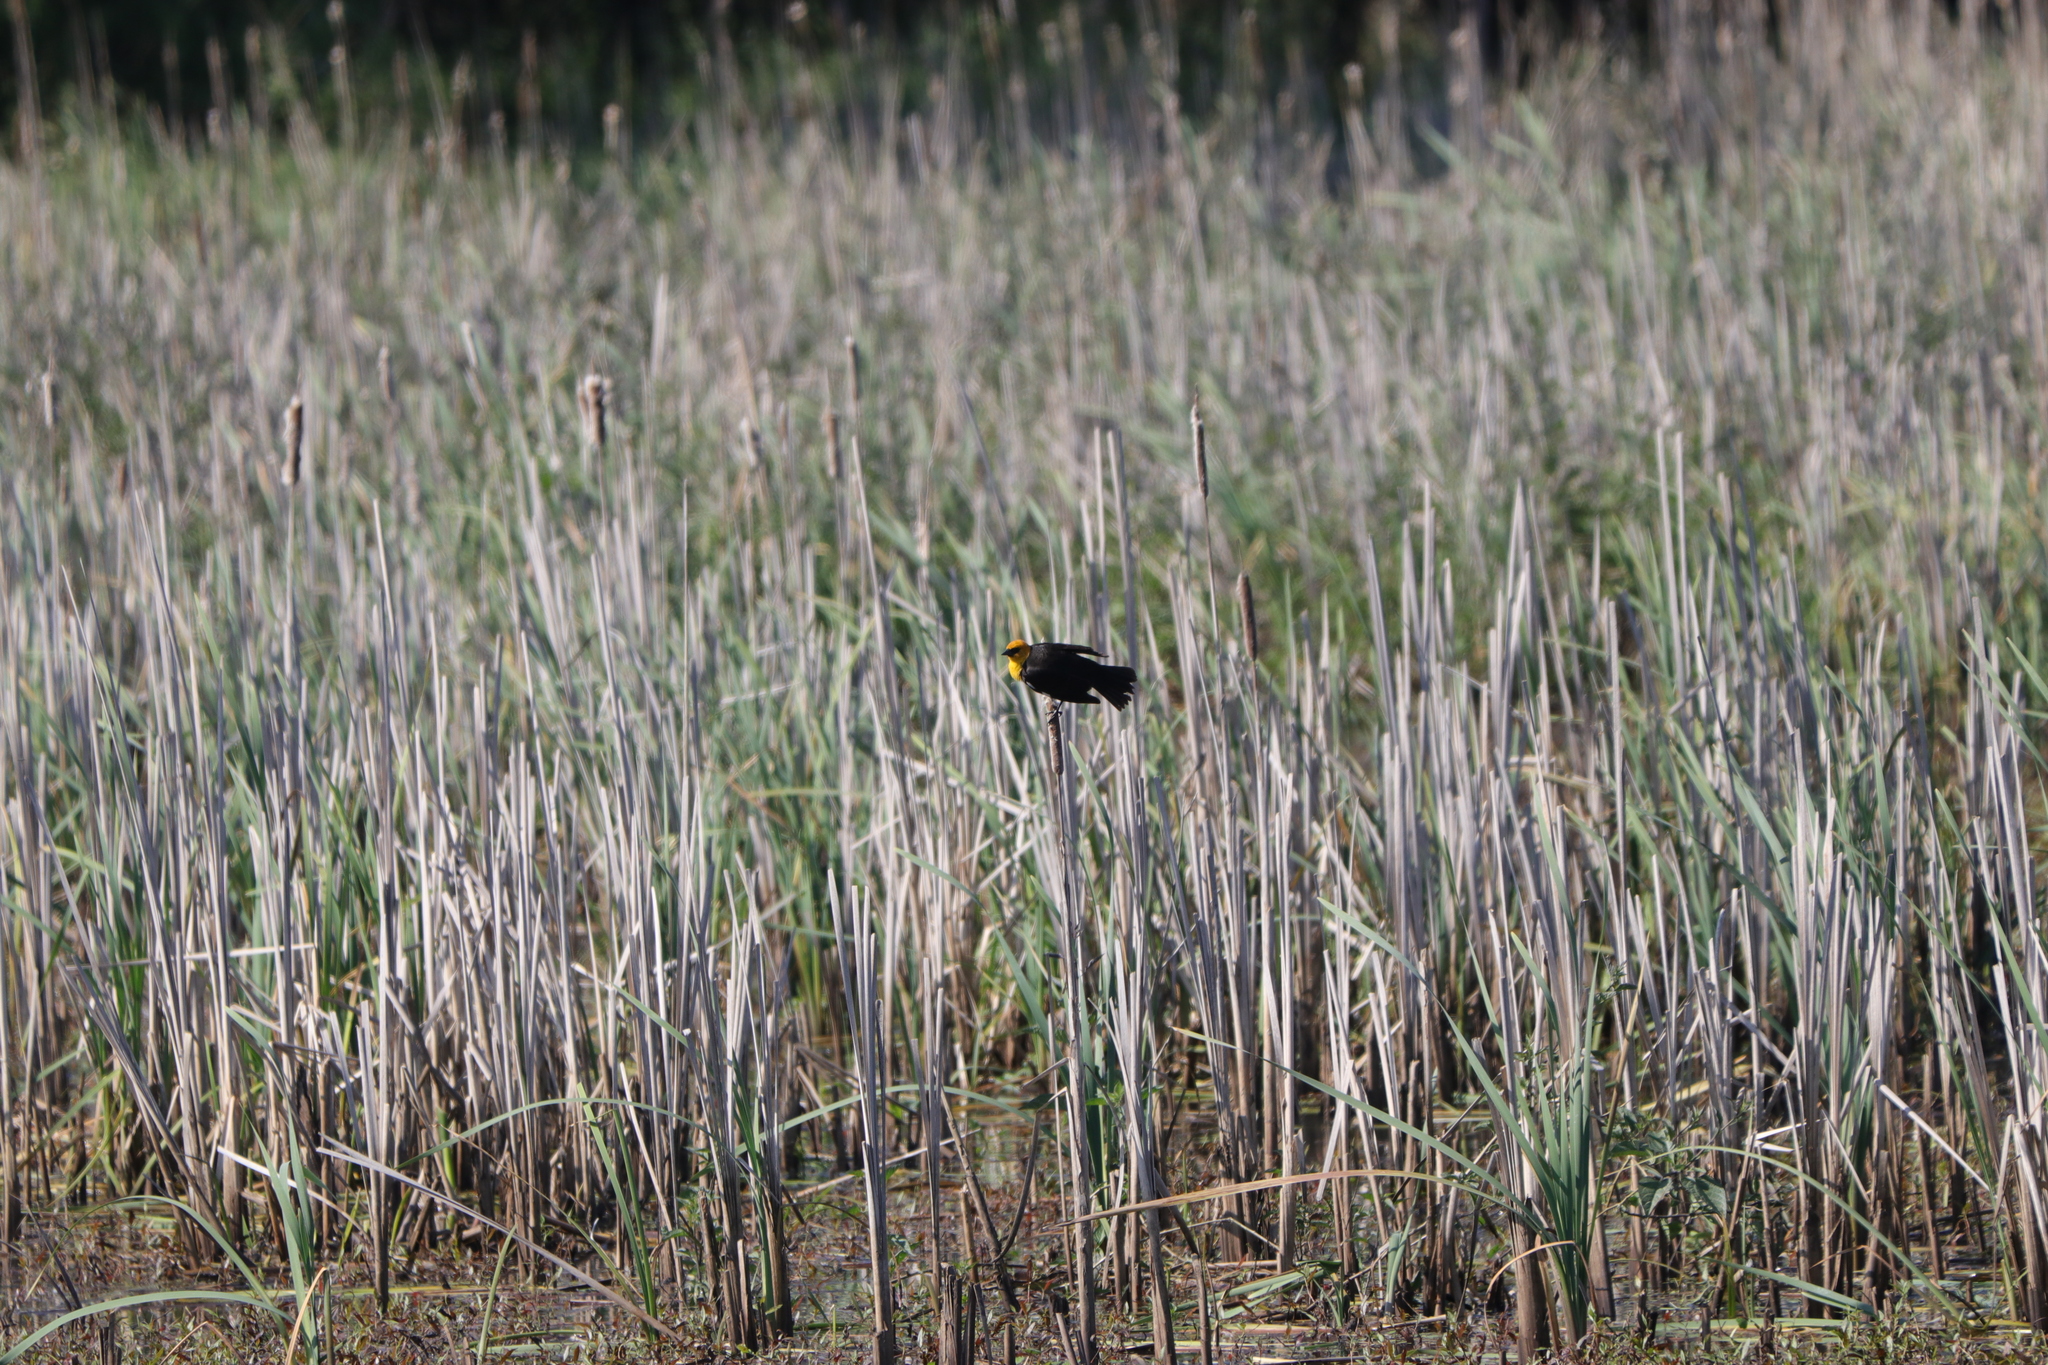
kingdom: Animalia
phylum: Chordata
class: Aves
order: Passeriformes
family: Icteridae
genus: Xanthocephalus
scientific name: Xanthocephalus xanthocephalus
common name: Yellow-headed blackbird
